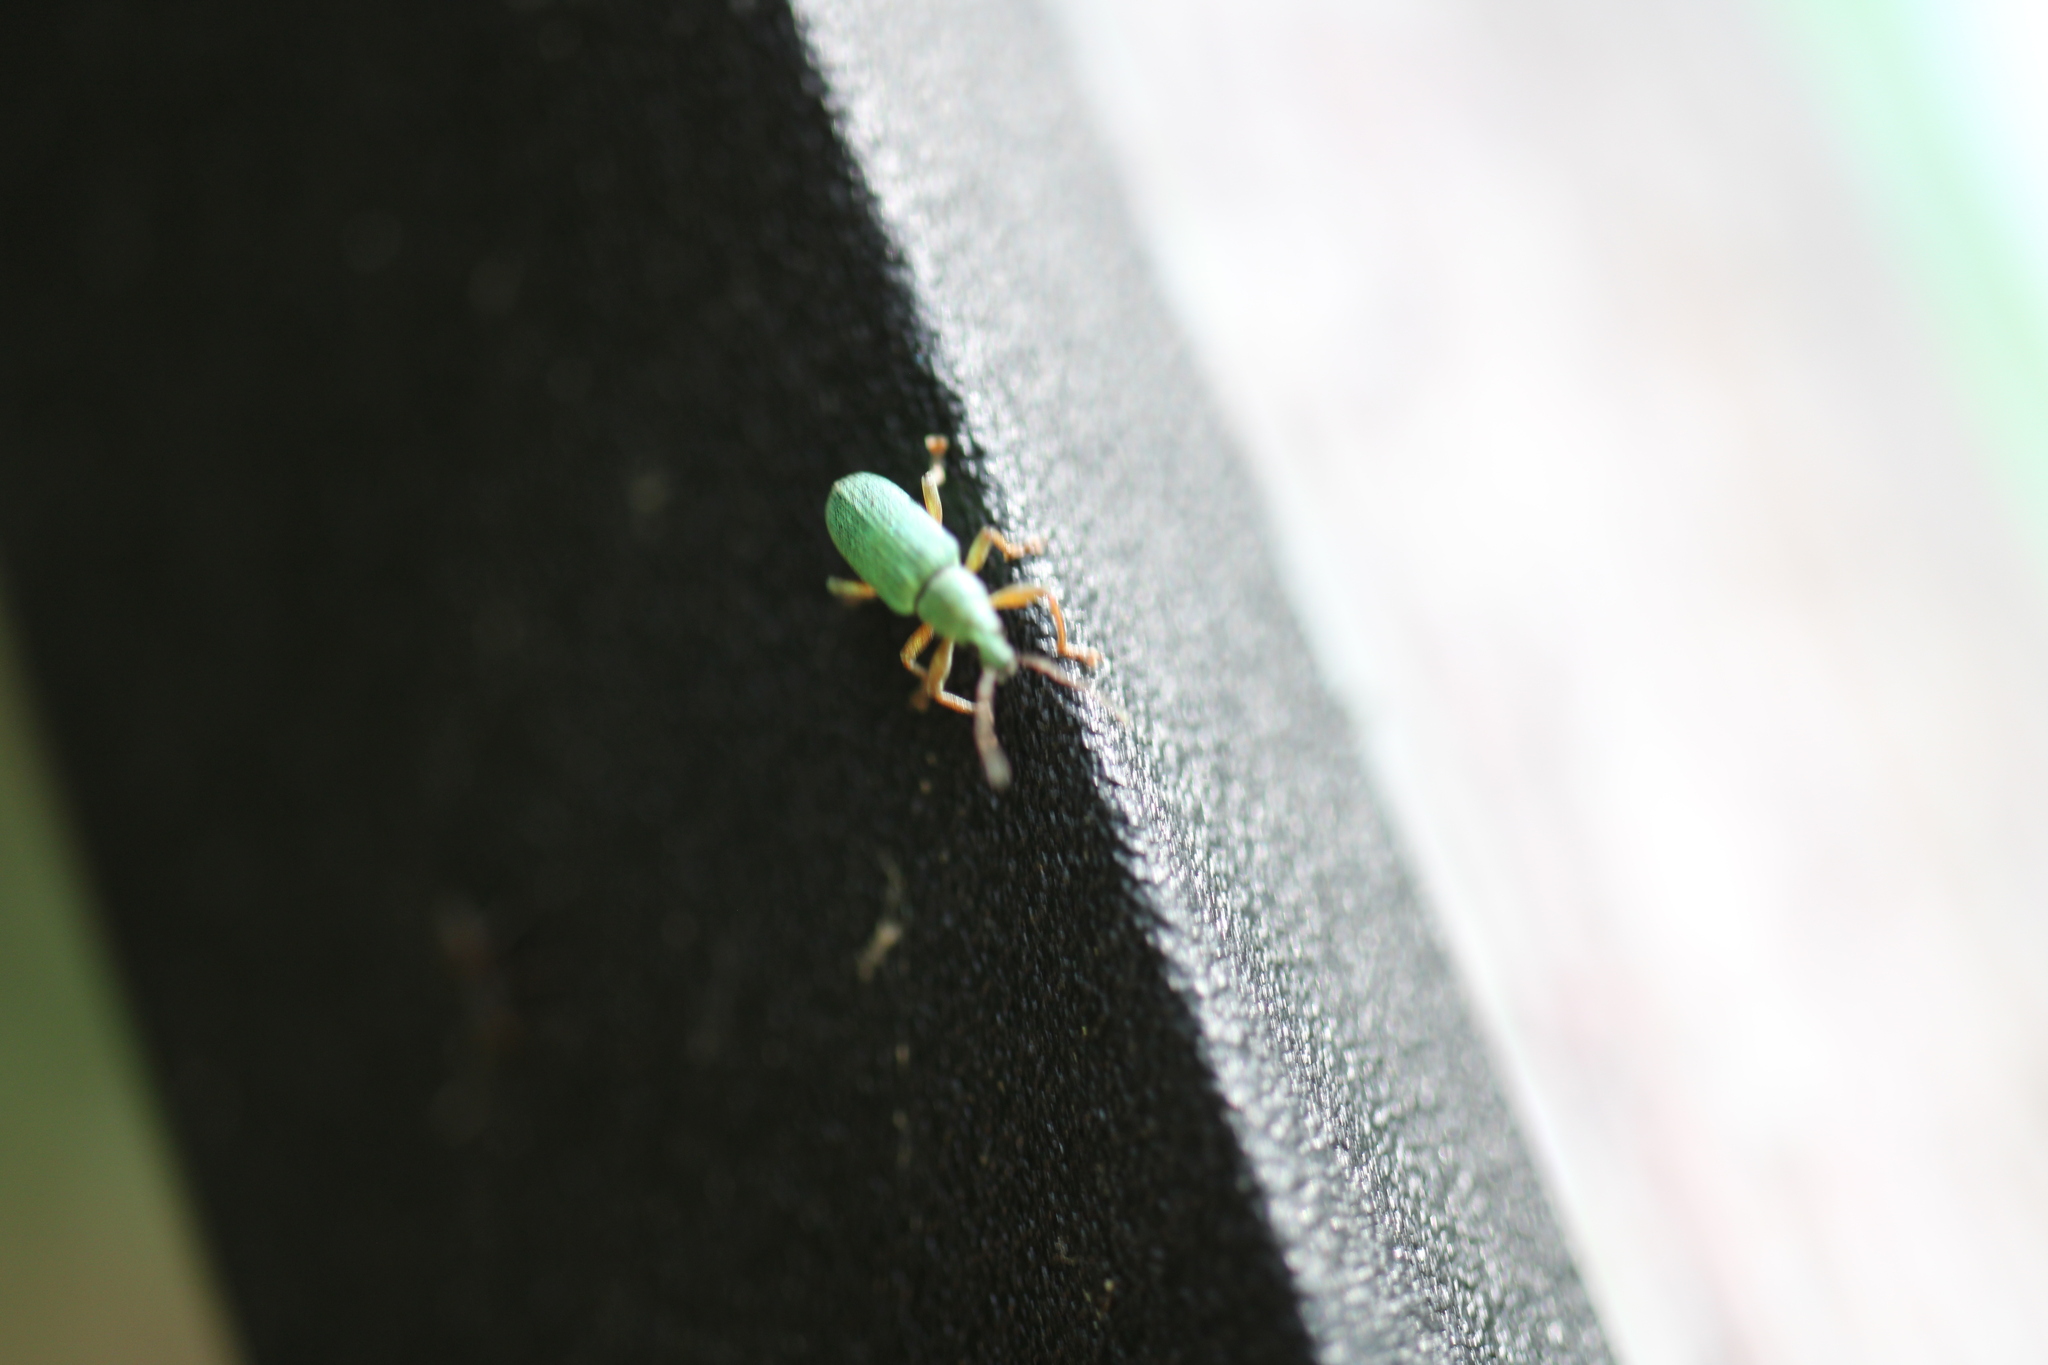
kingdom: Animalia
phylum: Arthropoda
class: Insecta
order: Coleoptera
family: Curculionidae
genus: Polydrusus
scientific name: Polydrusus formosus
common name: Weevil
